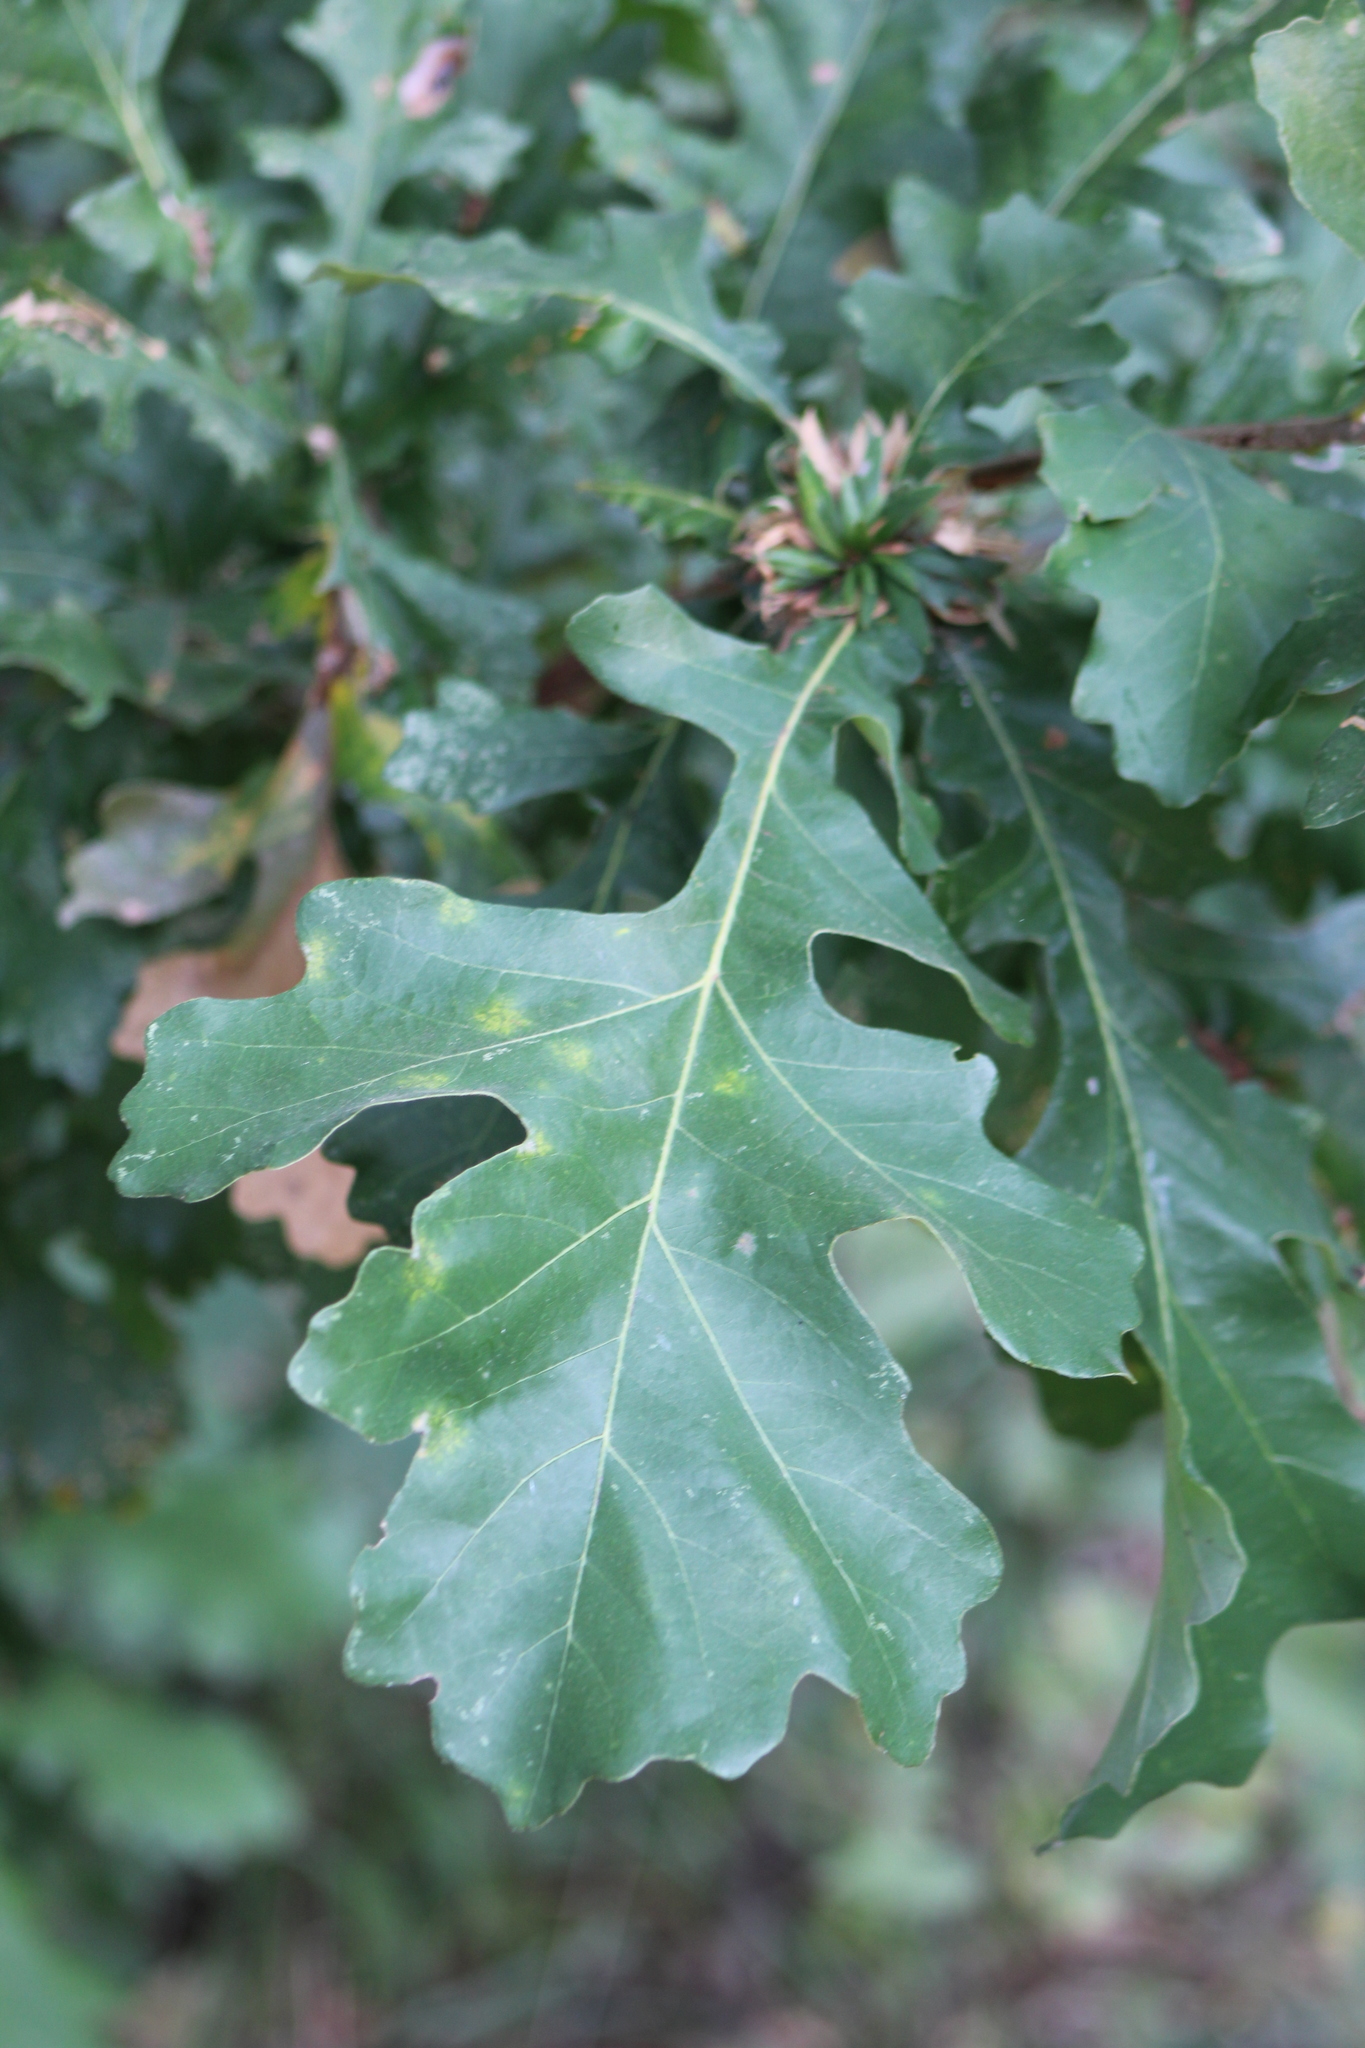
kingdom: Animalia
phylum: Arthropoda
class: Insecta
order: Hymenoptera
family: Cynipidae
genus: Andricus
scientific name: Andricus
